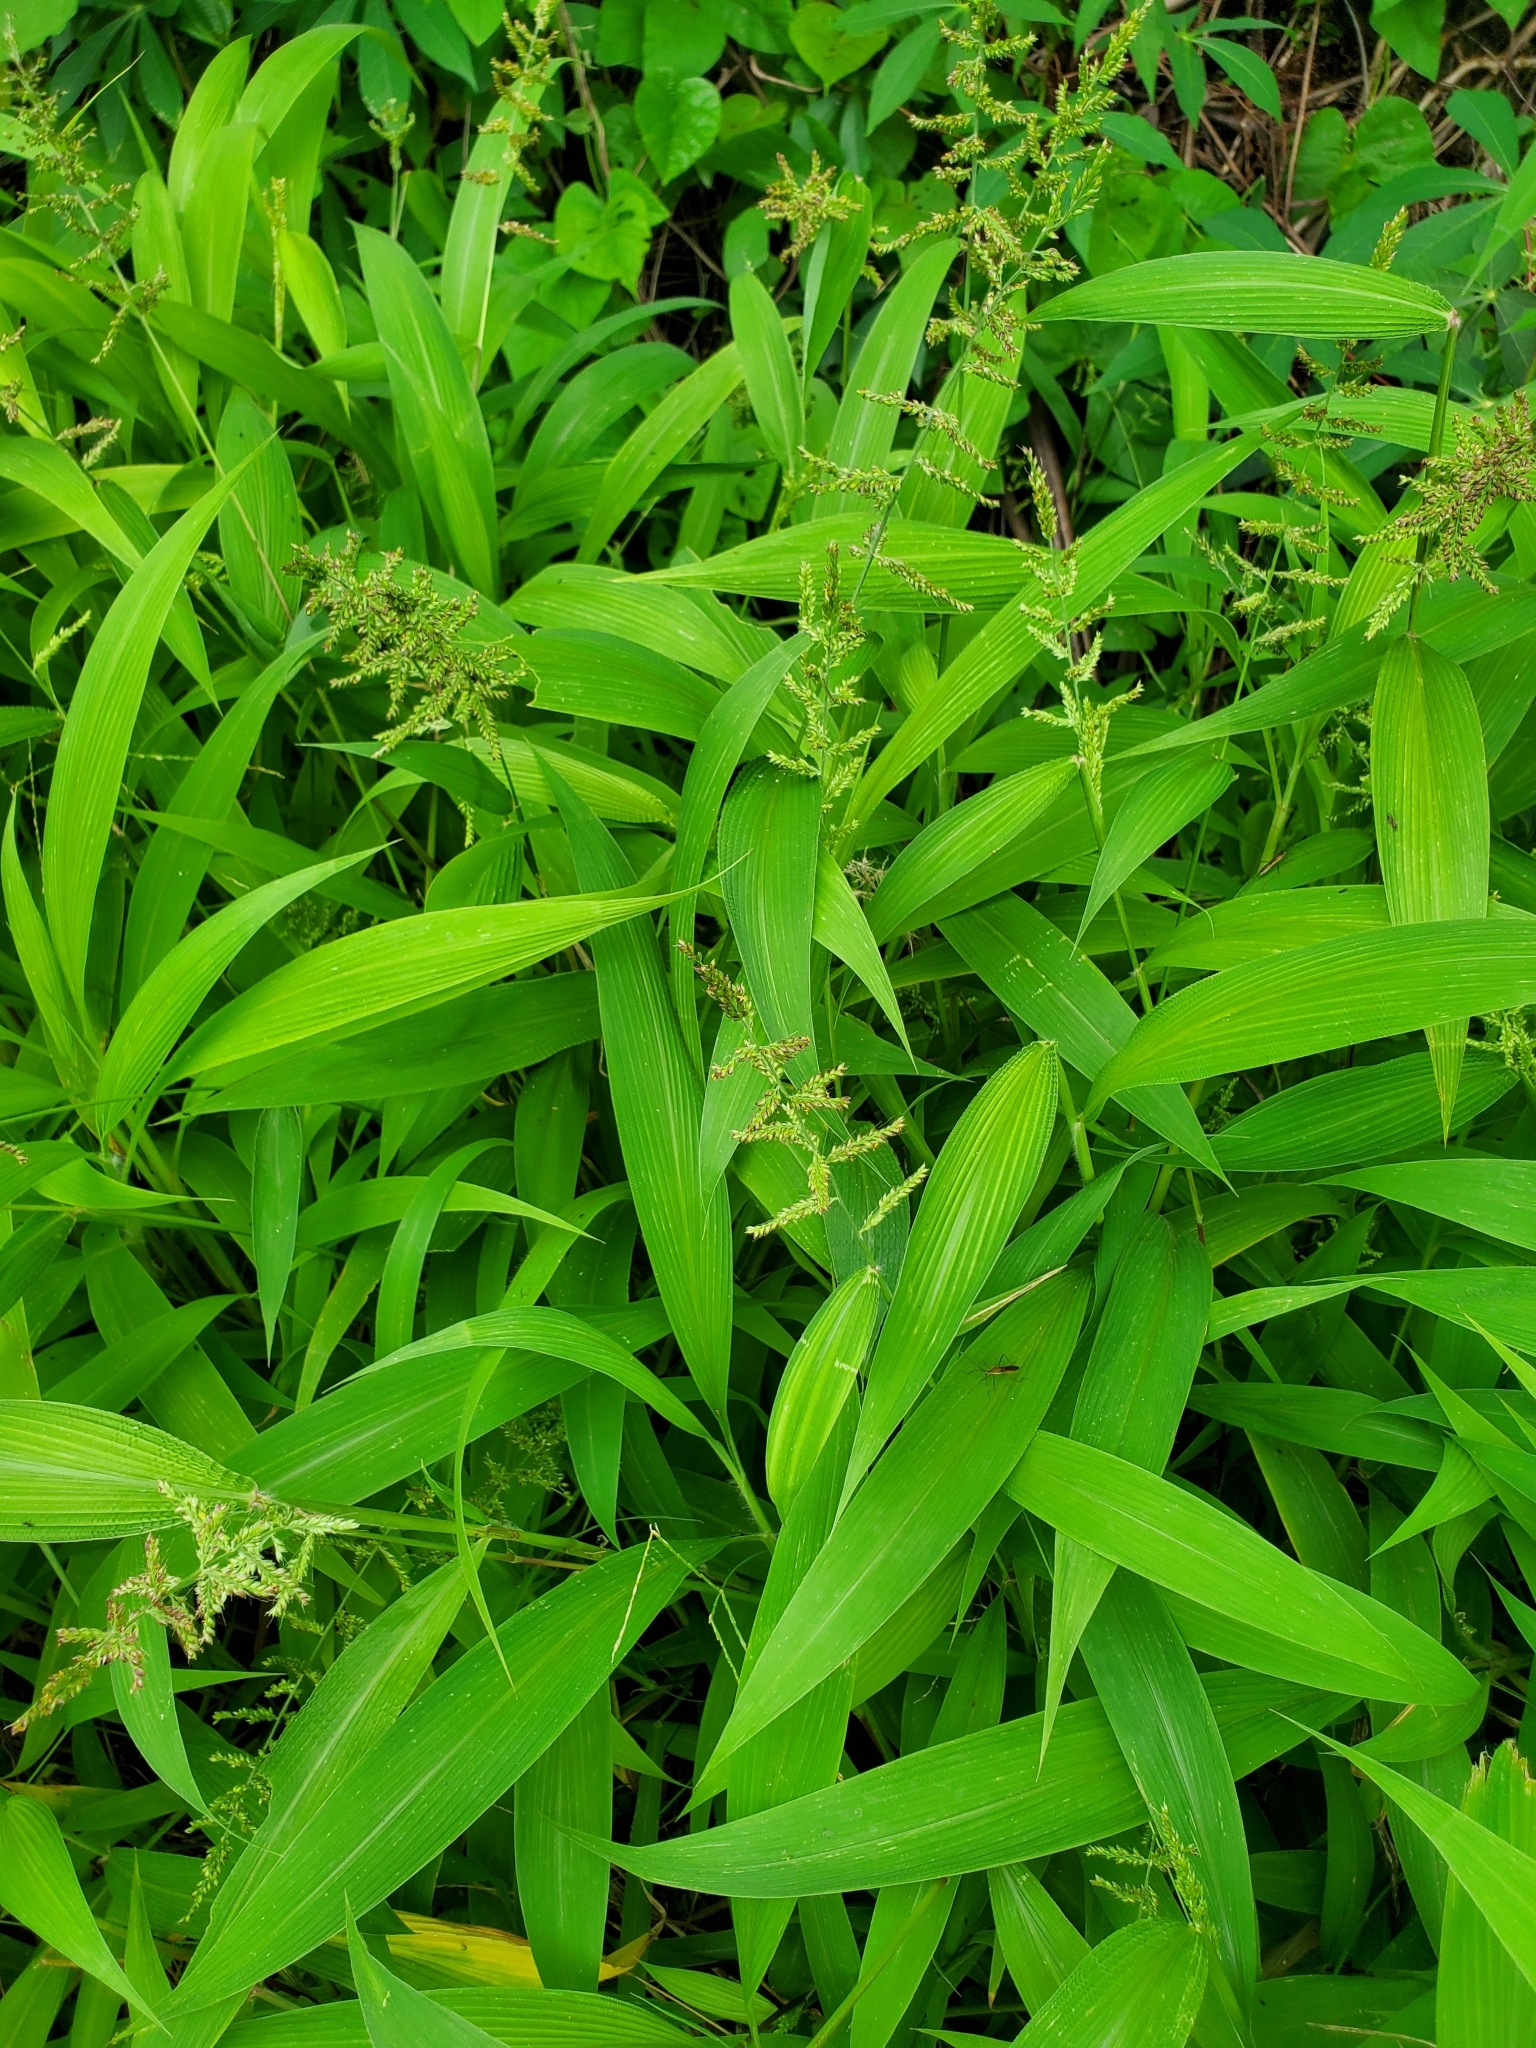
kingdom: Plantae
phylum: Tracheophyta
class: Liliopsida
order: Poales
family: Poaceae
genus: Setaria
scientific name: Setaria palmifolia
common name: Broadleaved bristlegrass
